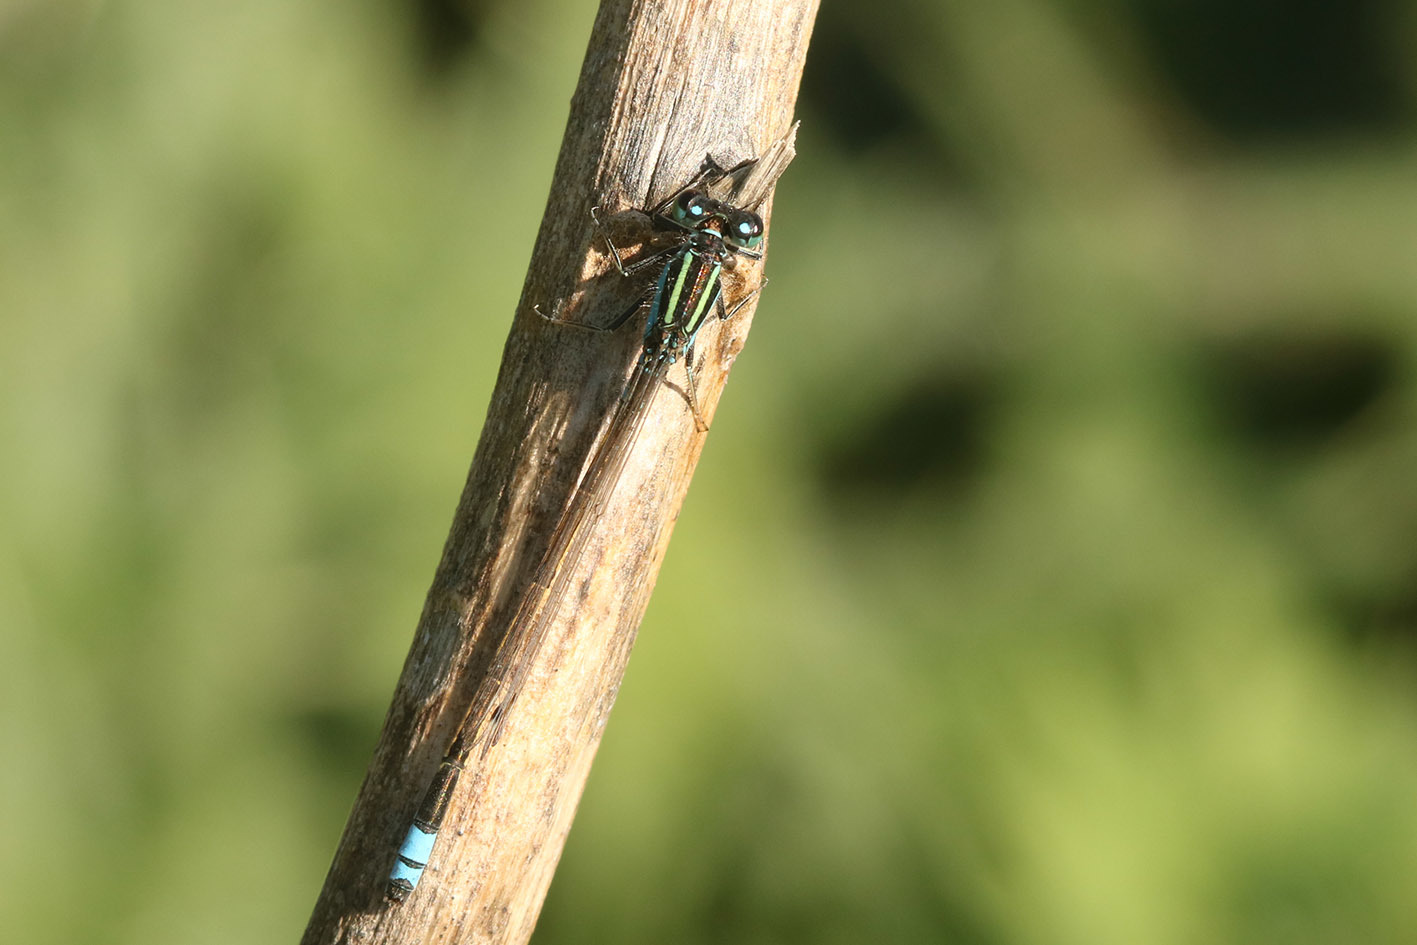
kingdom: Animalia
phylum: Arthropoda
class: Insecta
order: Odonata
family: Coenagrionidae
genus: Ischnura
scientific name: Ischnura fluviatilis
